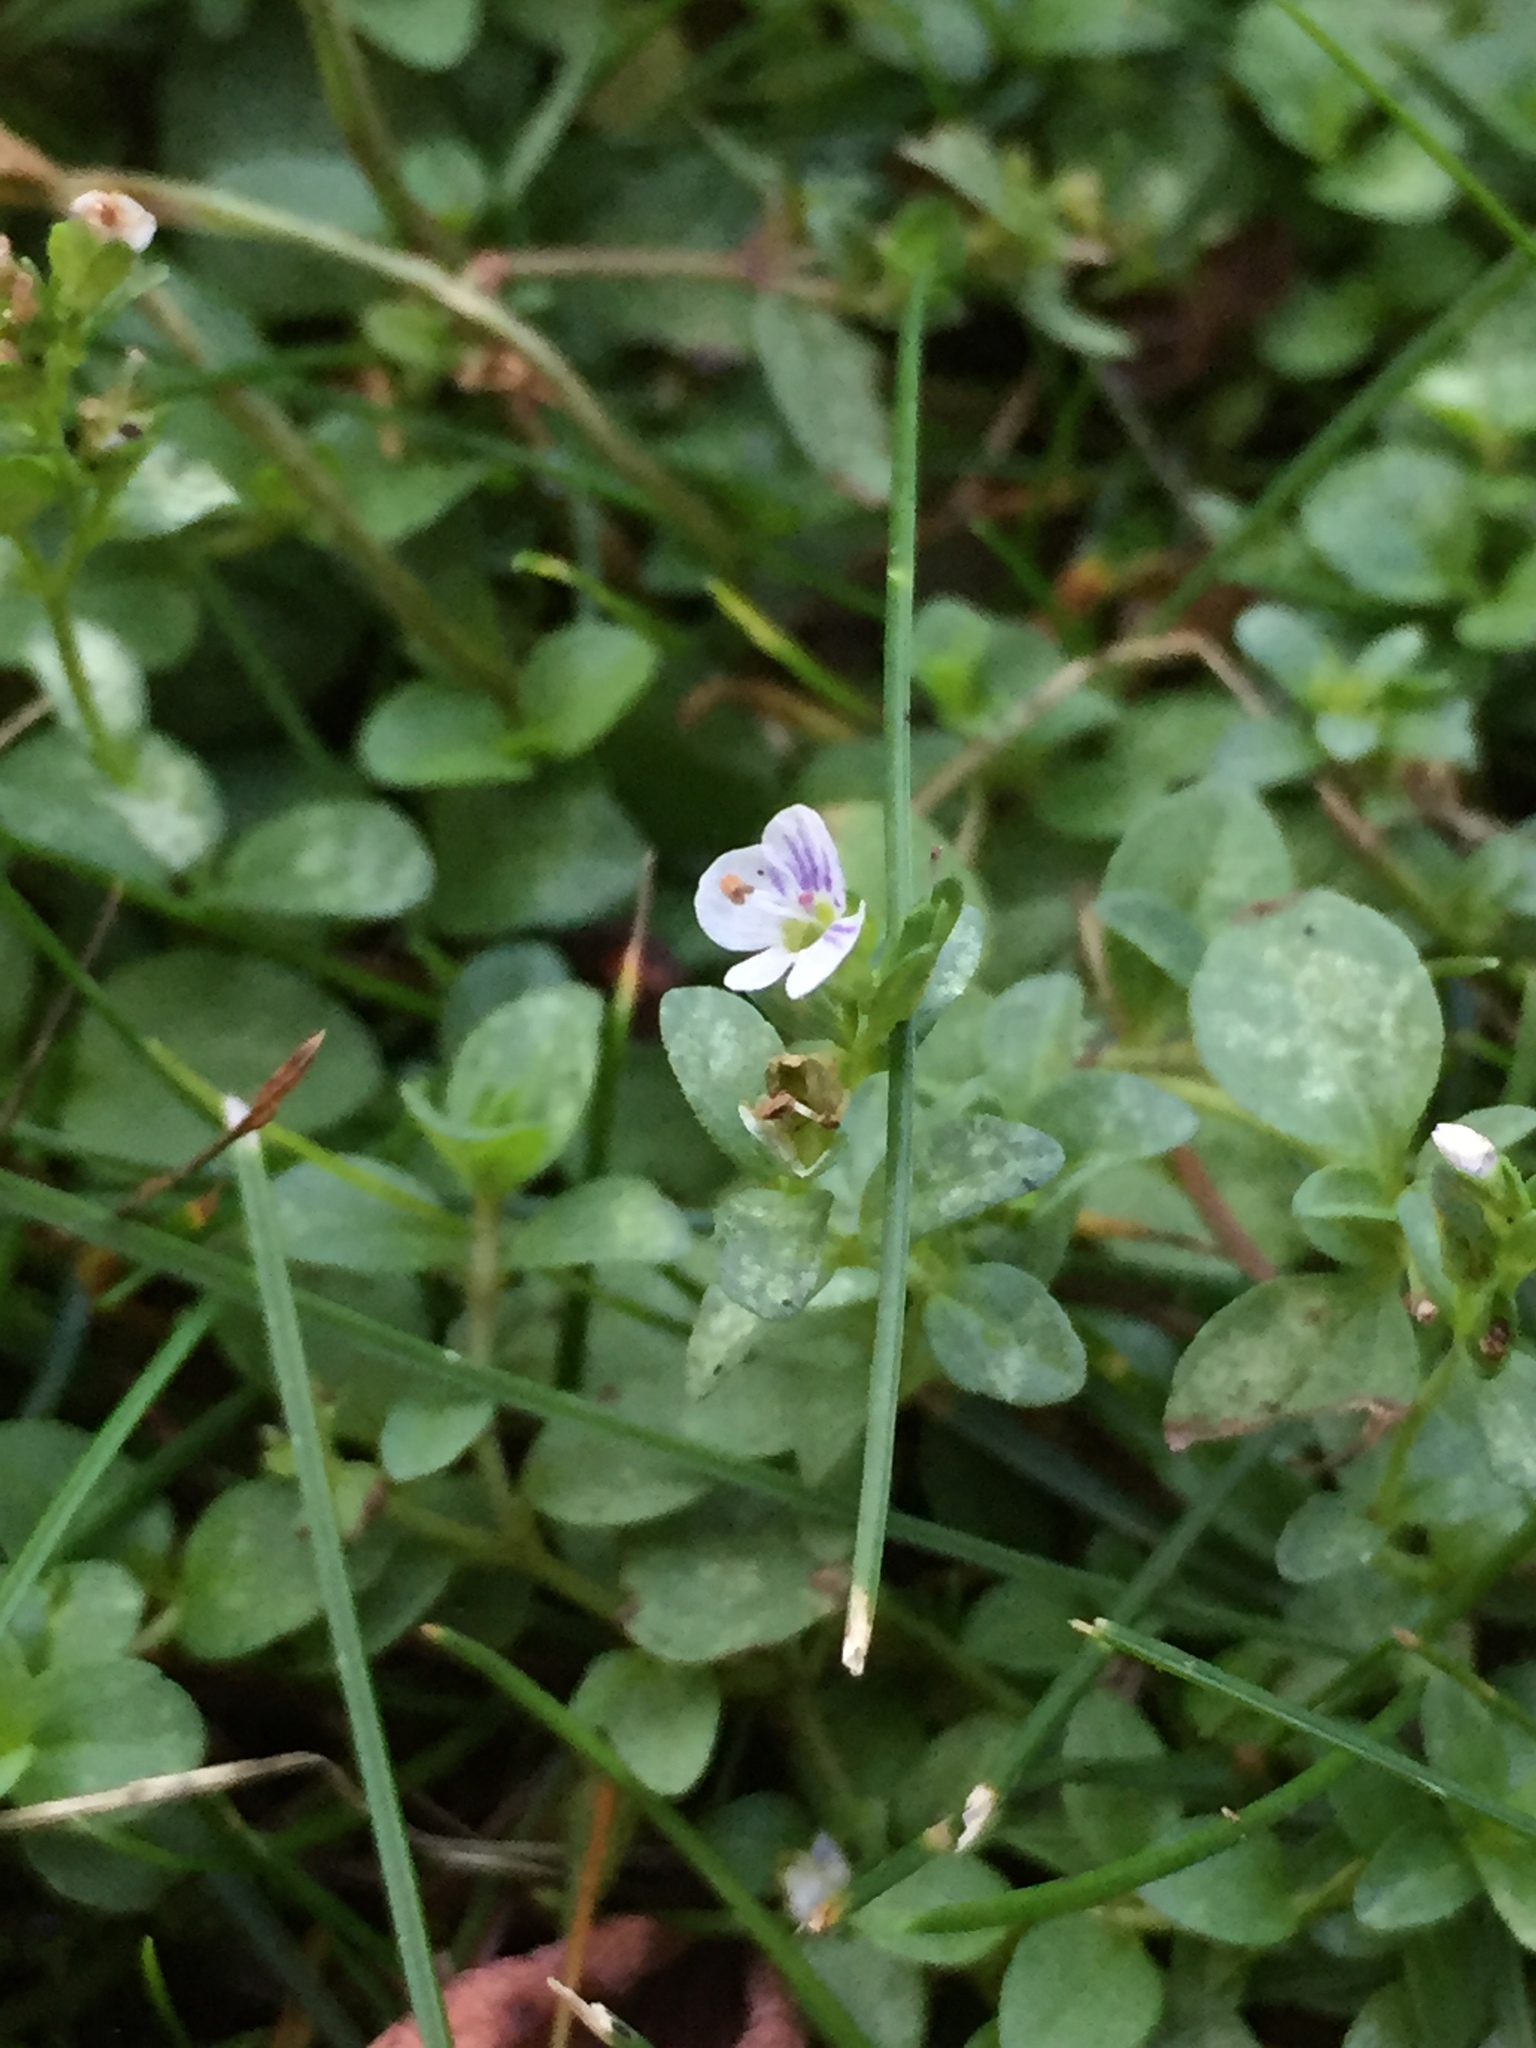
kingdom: Plantae
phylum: Tracheophyta
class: Magnoliopsida
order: Lamiales
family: Plantaginaceae
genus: Veronica
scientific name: Veronica serpyllifolia
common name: Thyme-leaved speedwell
